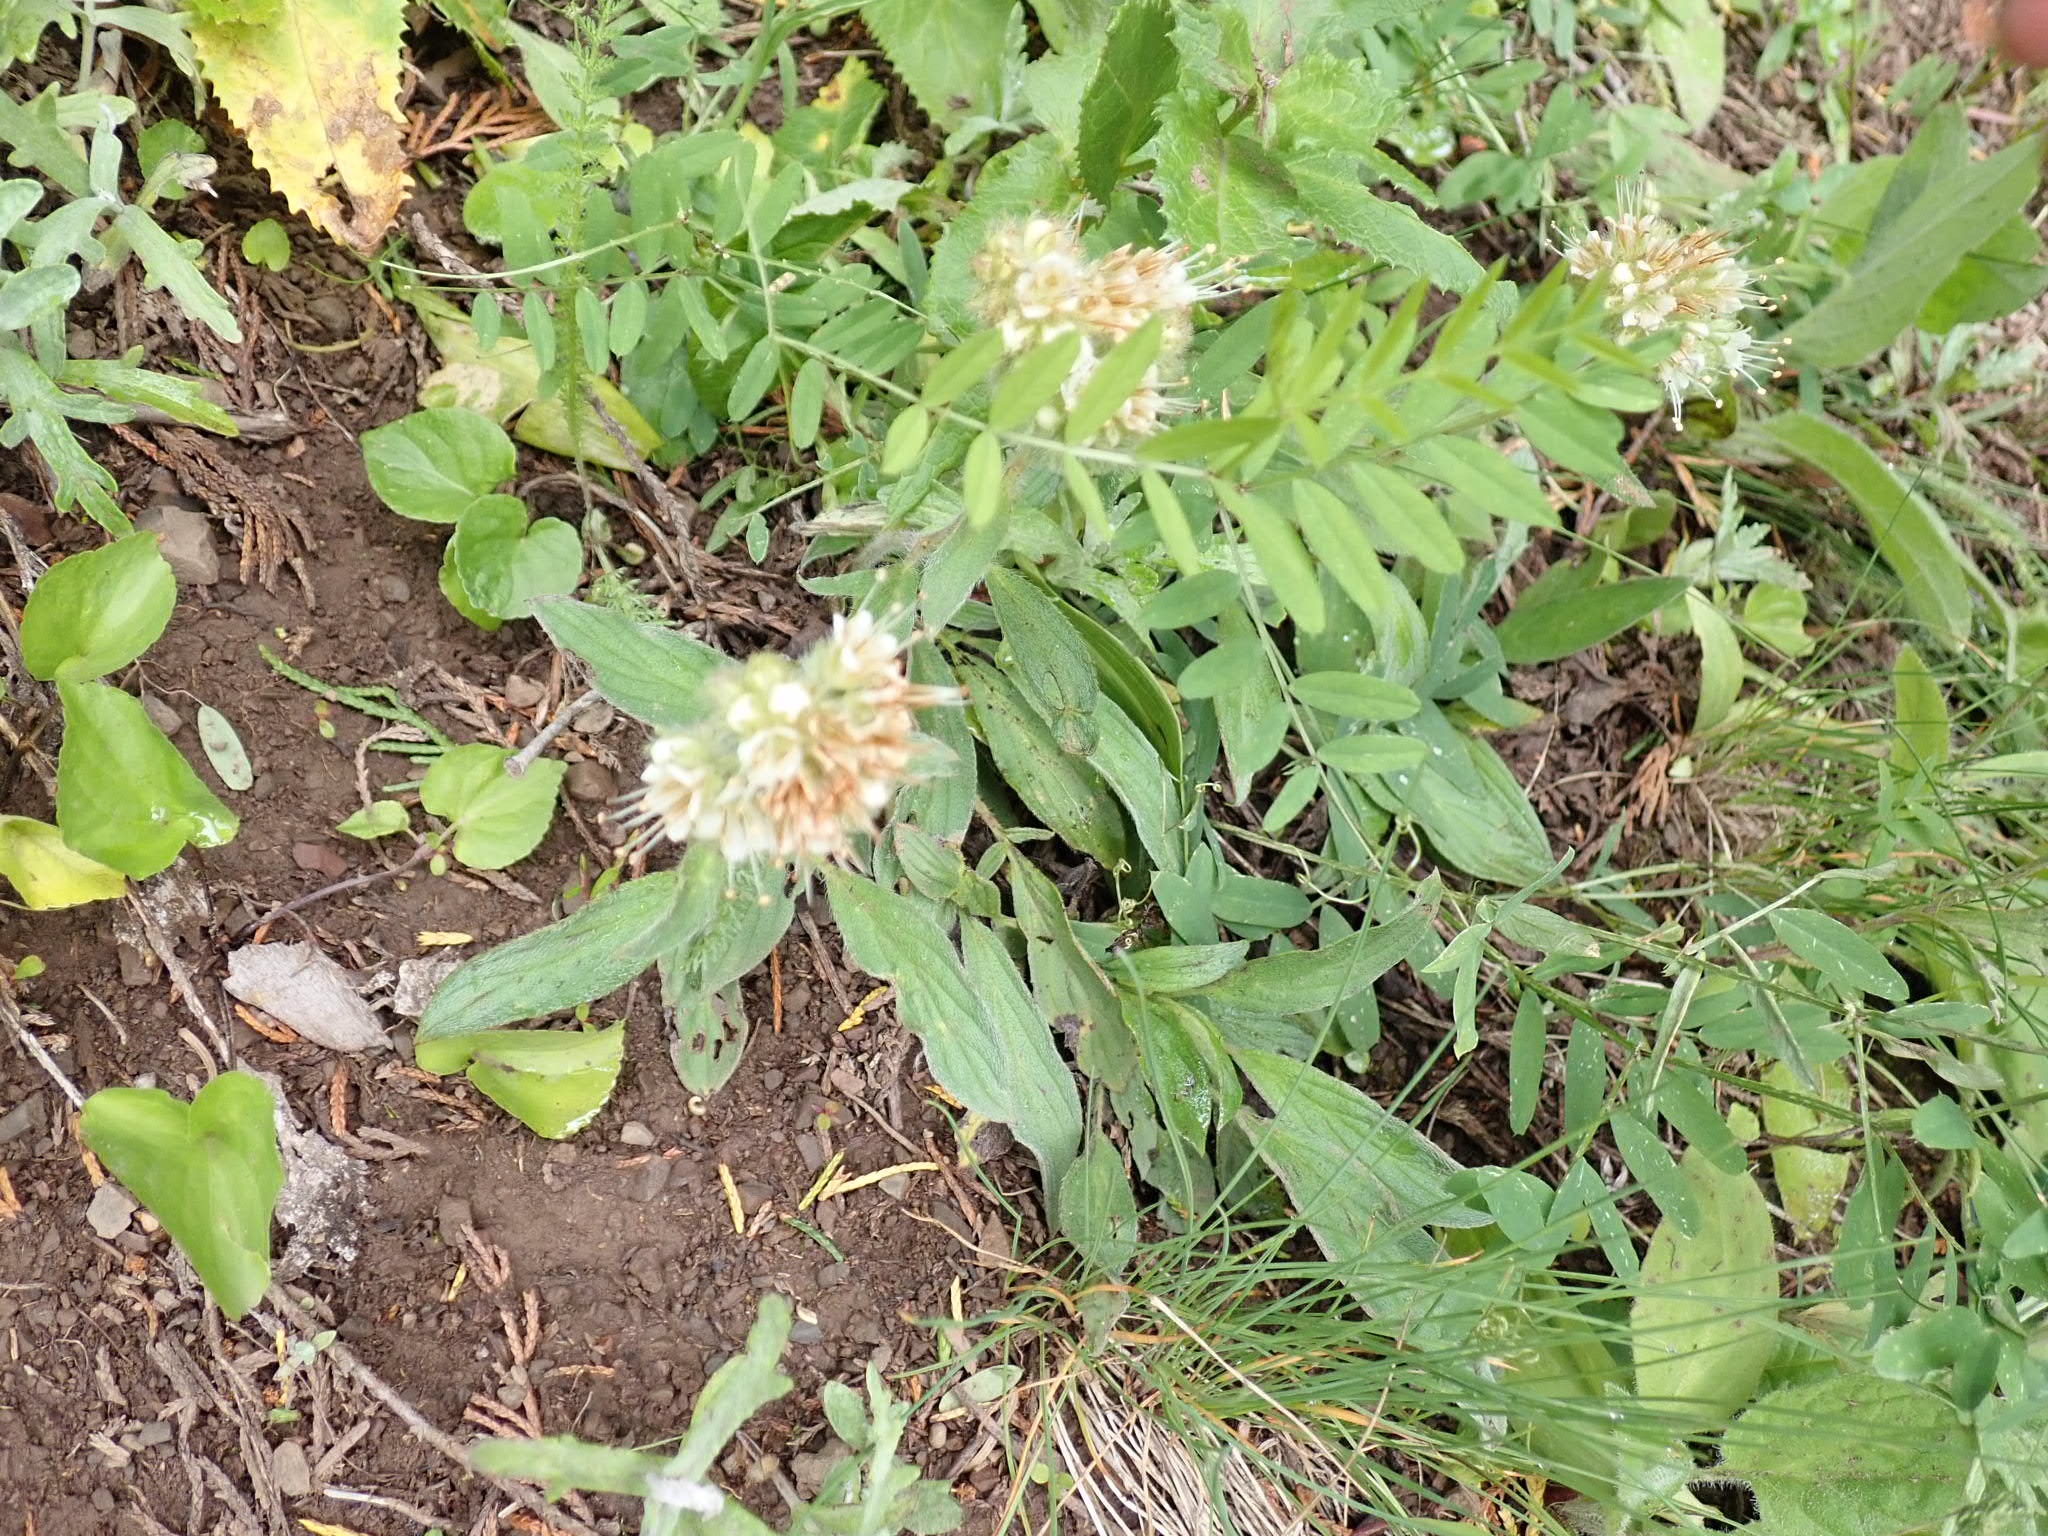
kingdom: Plantae
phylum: Tracheophyta
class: Magnoliopsida
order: Boraginales
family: Hydrophyllaceae
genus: Phacelia
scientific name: Phacelia hastata
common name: Silver-leaved phacelia
